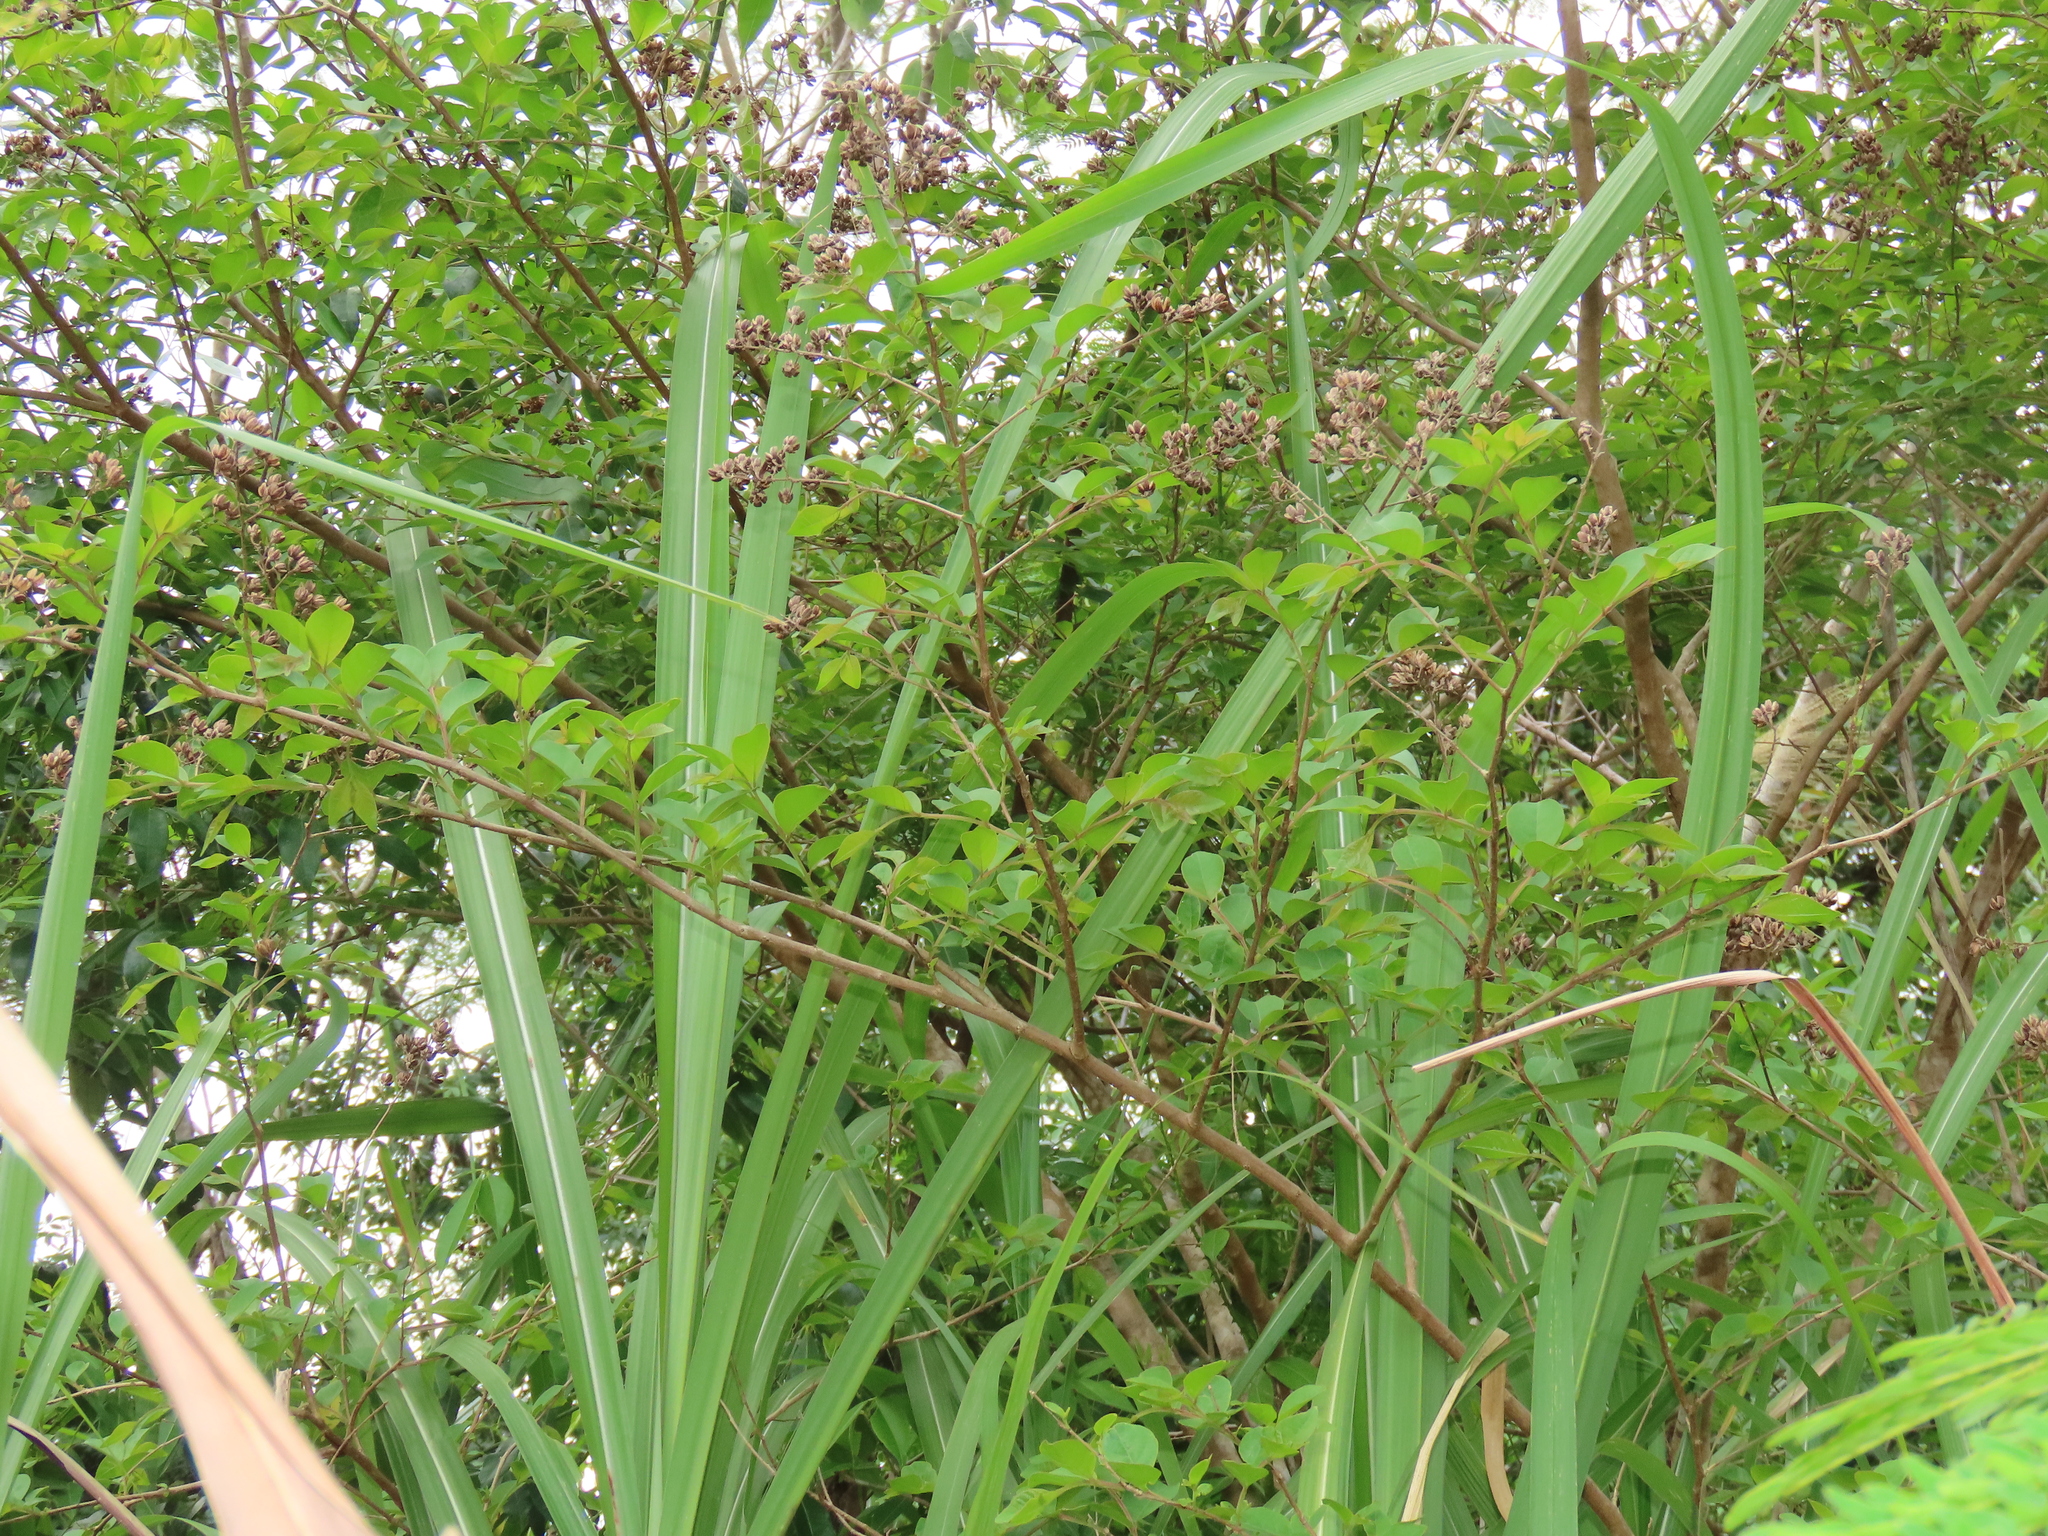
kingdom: Plantae
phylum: Tracheophyta
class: Magnoliopsida
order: Myrtales
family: Lythraceae
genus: Lagerstroemia
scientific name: Lagerstroemia subcostata
